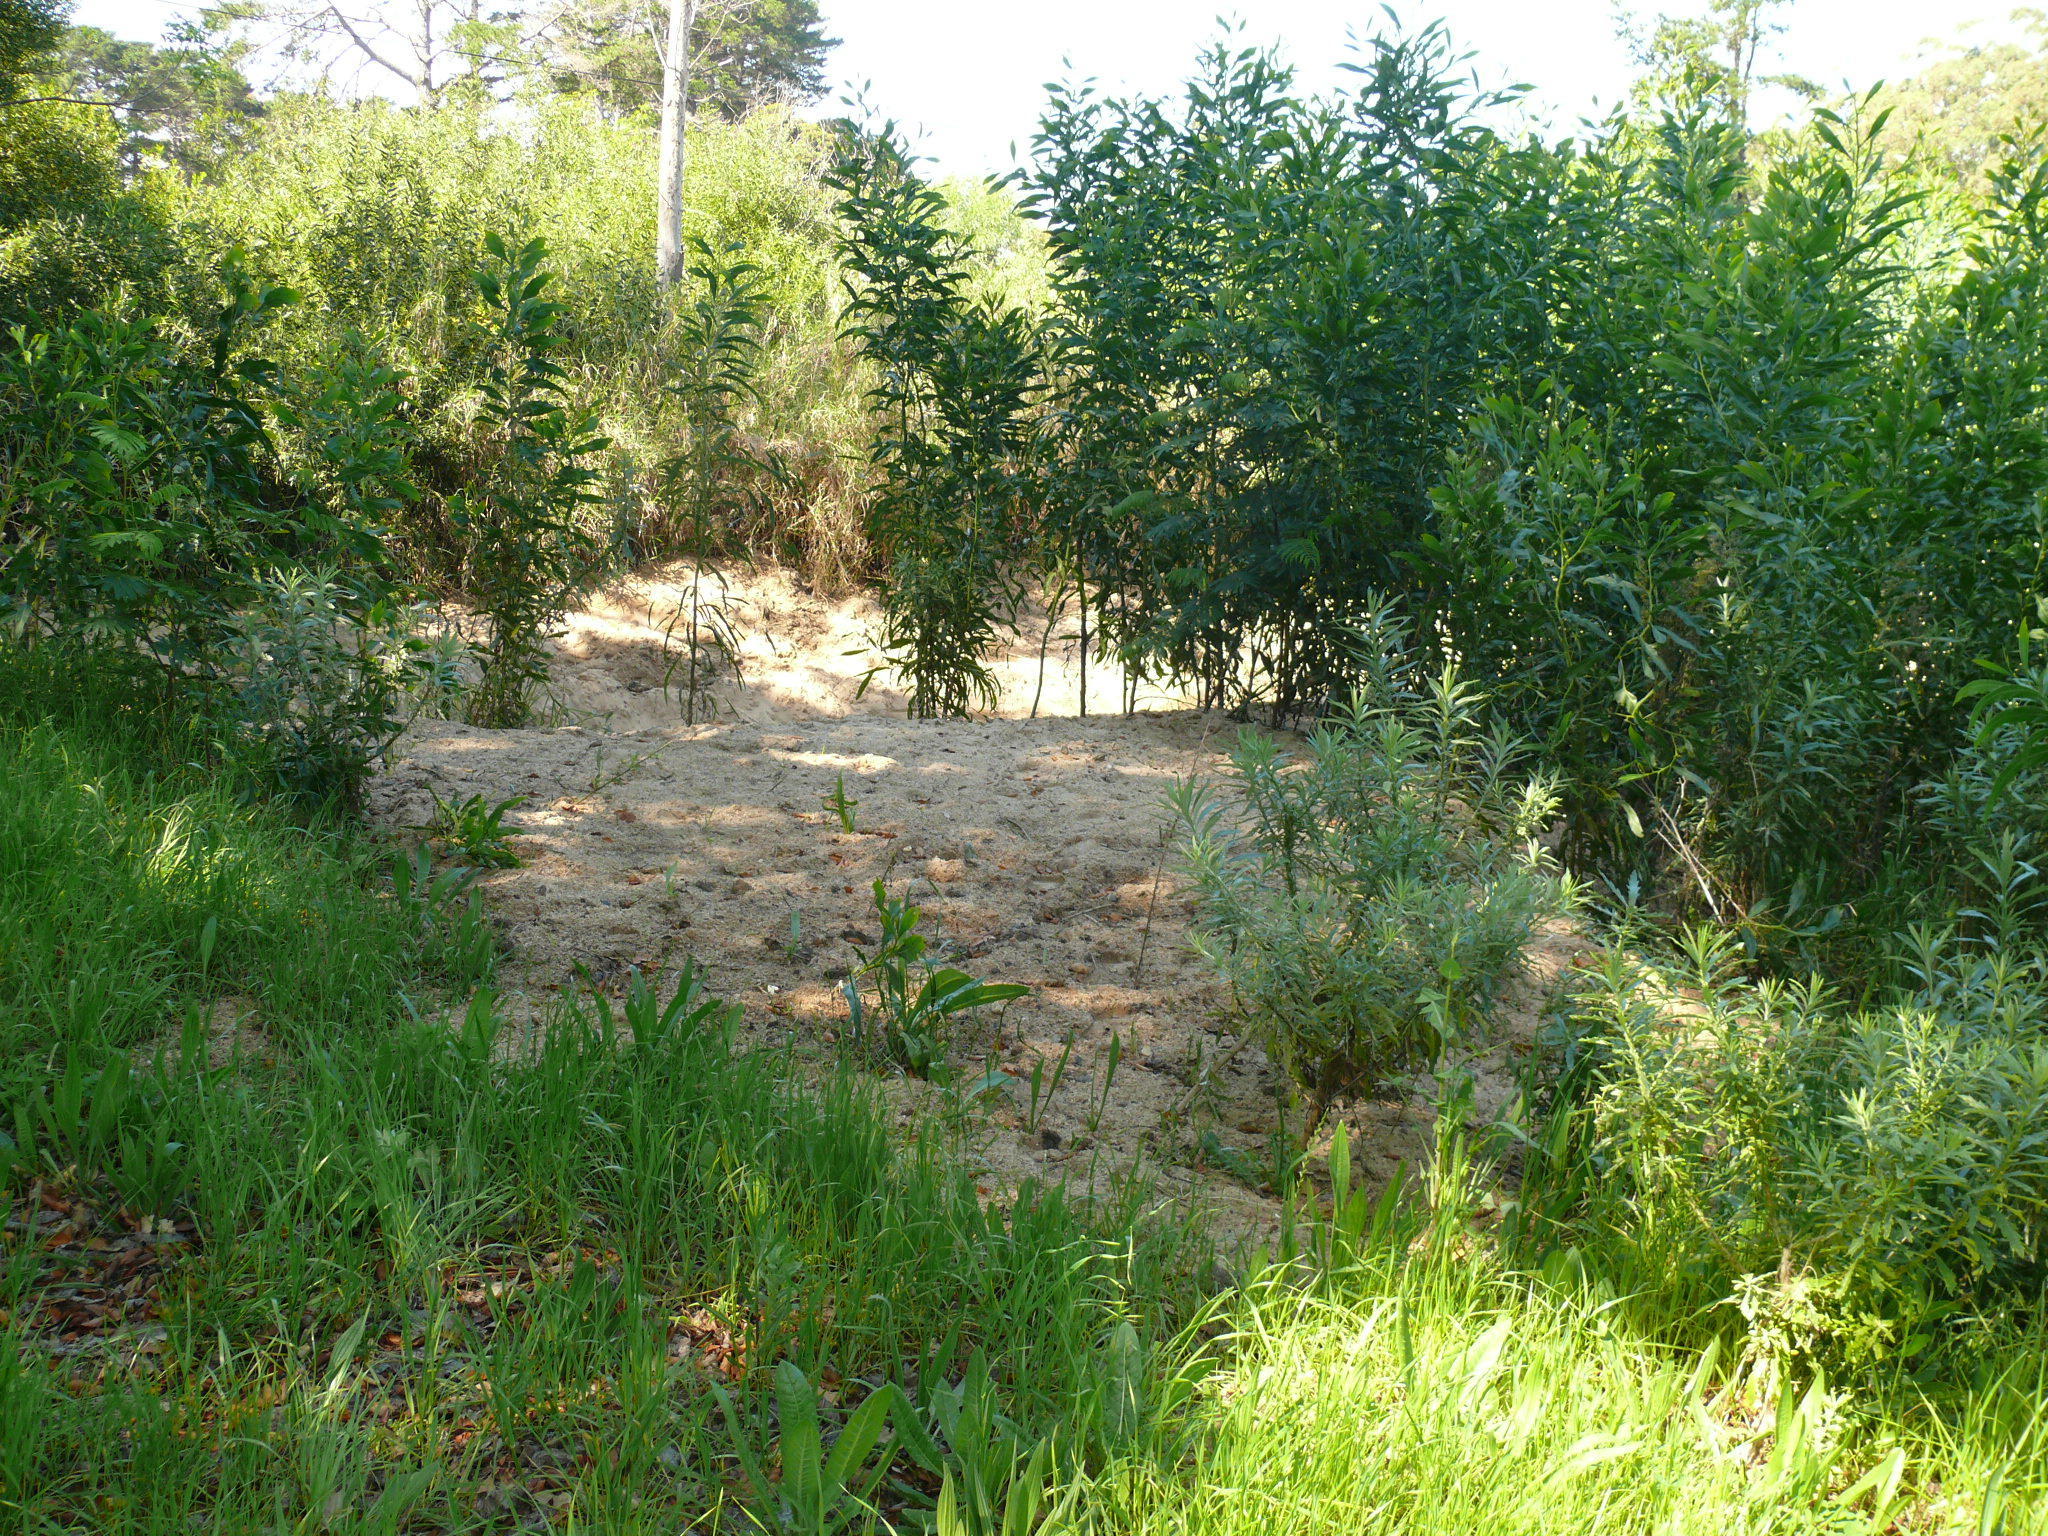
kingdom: Plantae
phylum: Tracheophyta
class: Magnoliopsida
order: Fabales
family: Fabaceae
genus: Acacia
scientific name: Acacia saligna
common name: Orange wattle
